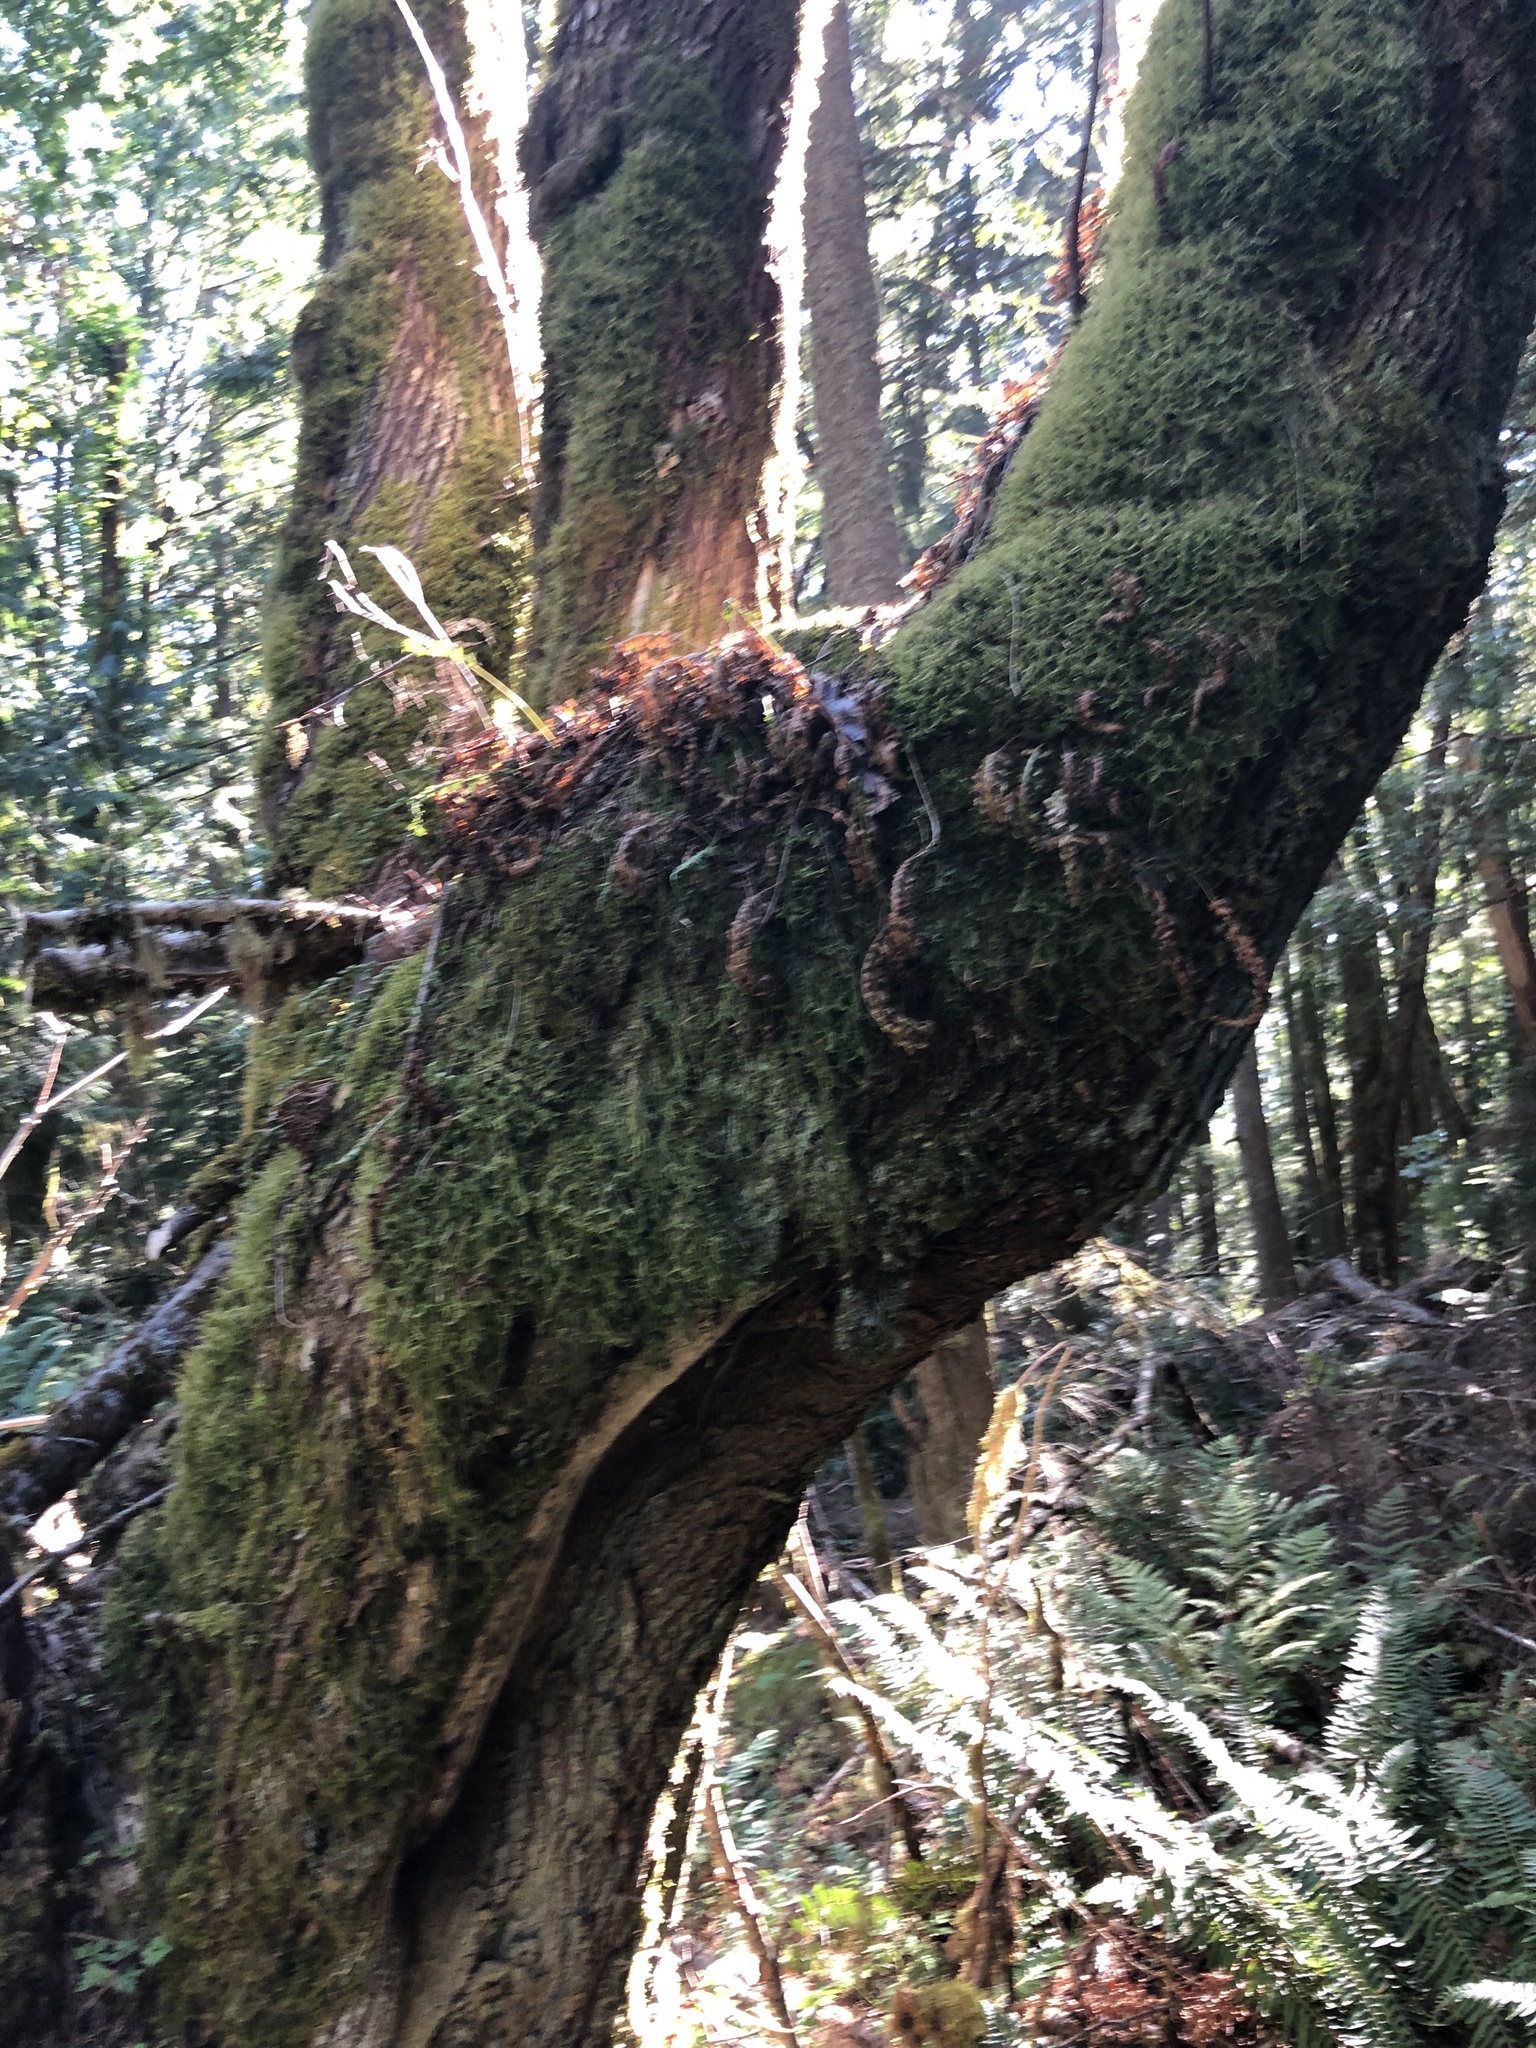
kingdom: Plantae
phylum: Tracheophyta
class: Magnoliopsida
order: Sapindales
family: Sapindaceae
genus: Acer
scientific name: Acer macrophyllum
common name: Oregon maple
